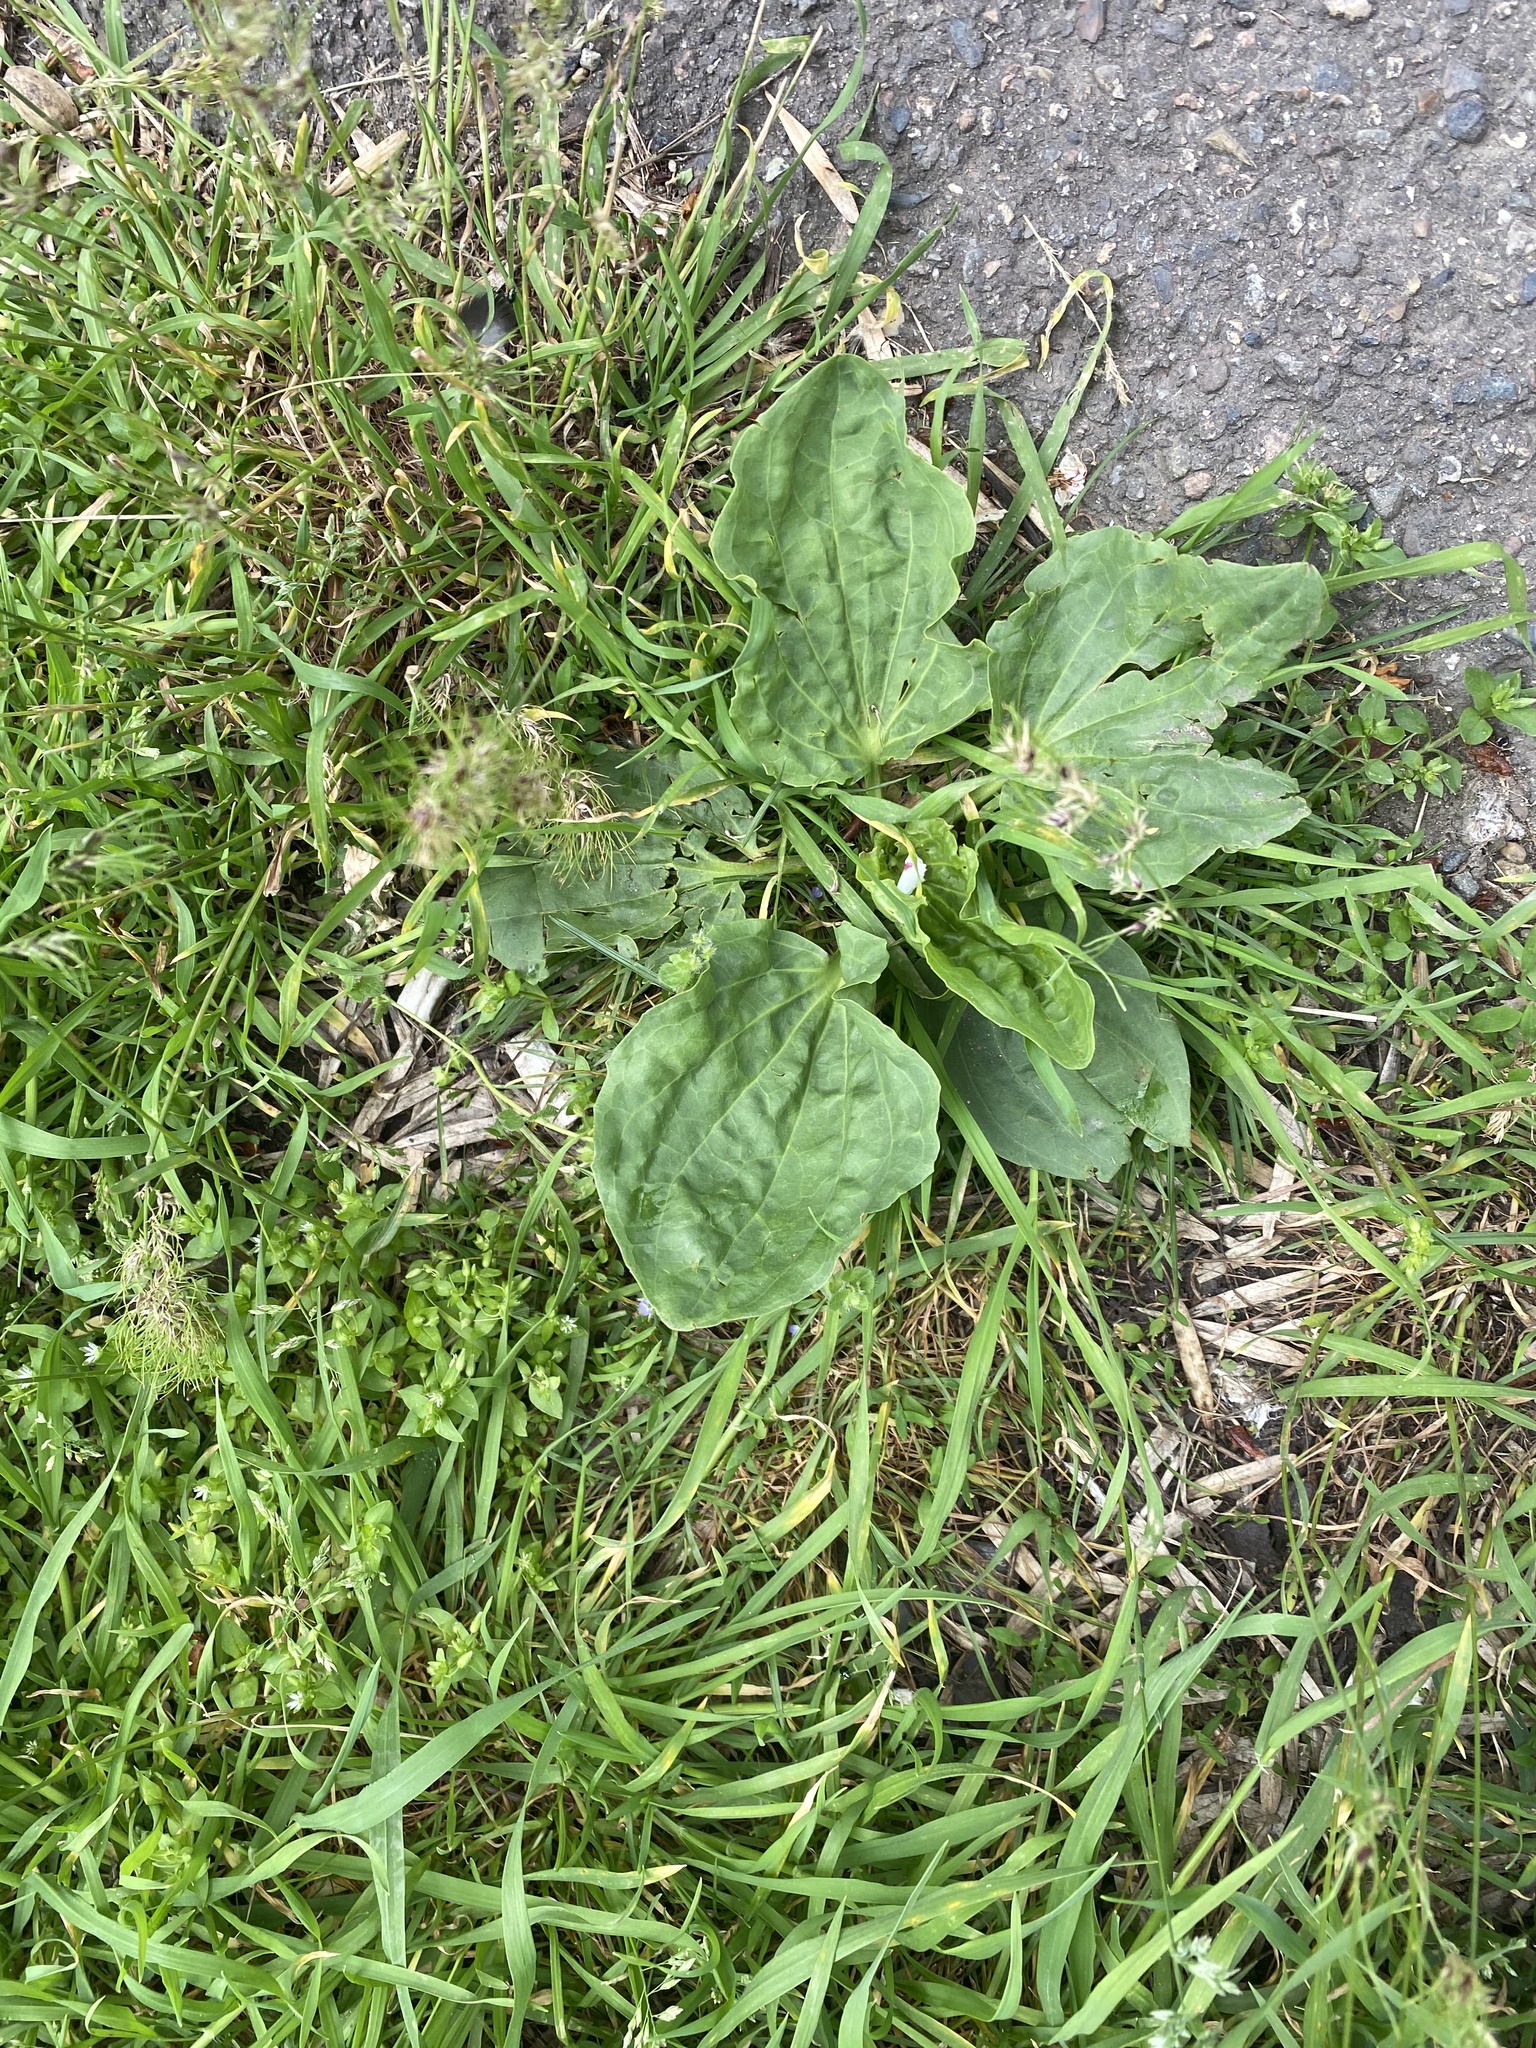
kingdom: Plantae
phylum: Tracheophyta
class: Magnoliopsida
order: Lamiales
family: Plantaginaceae
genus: Plantago
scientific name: Plantago major
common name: Common plantain
